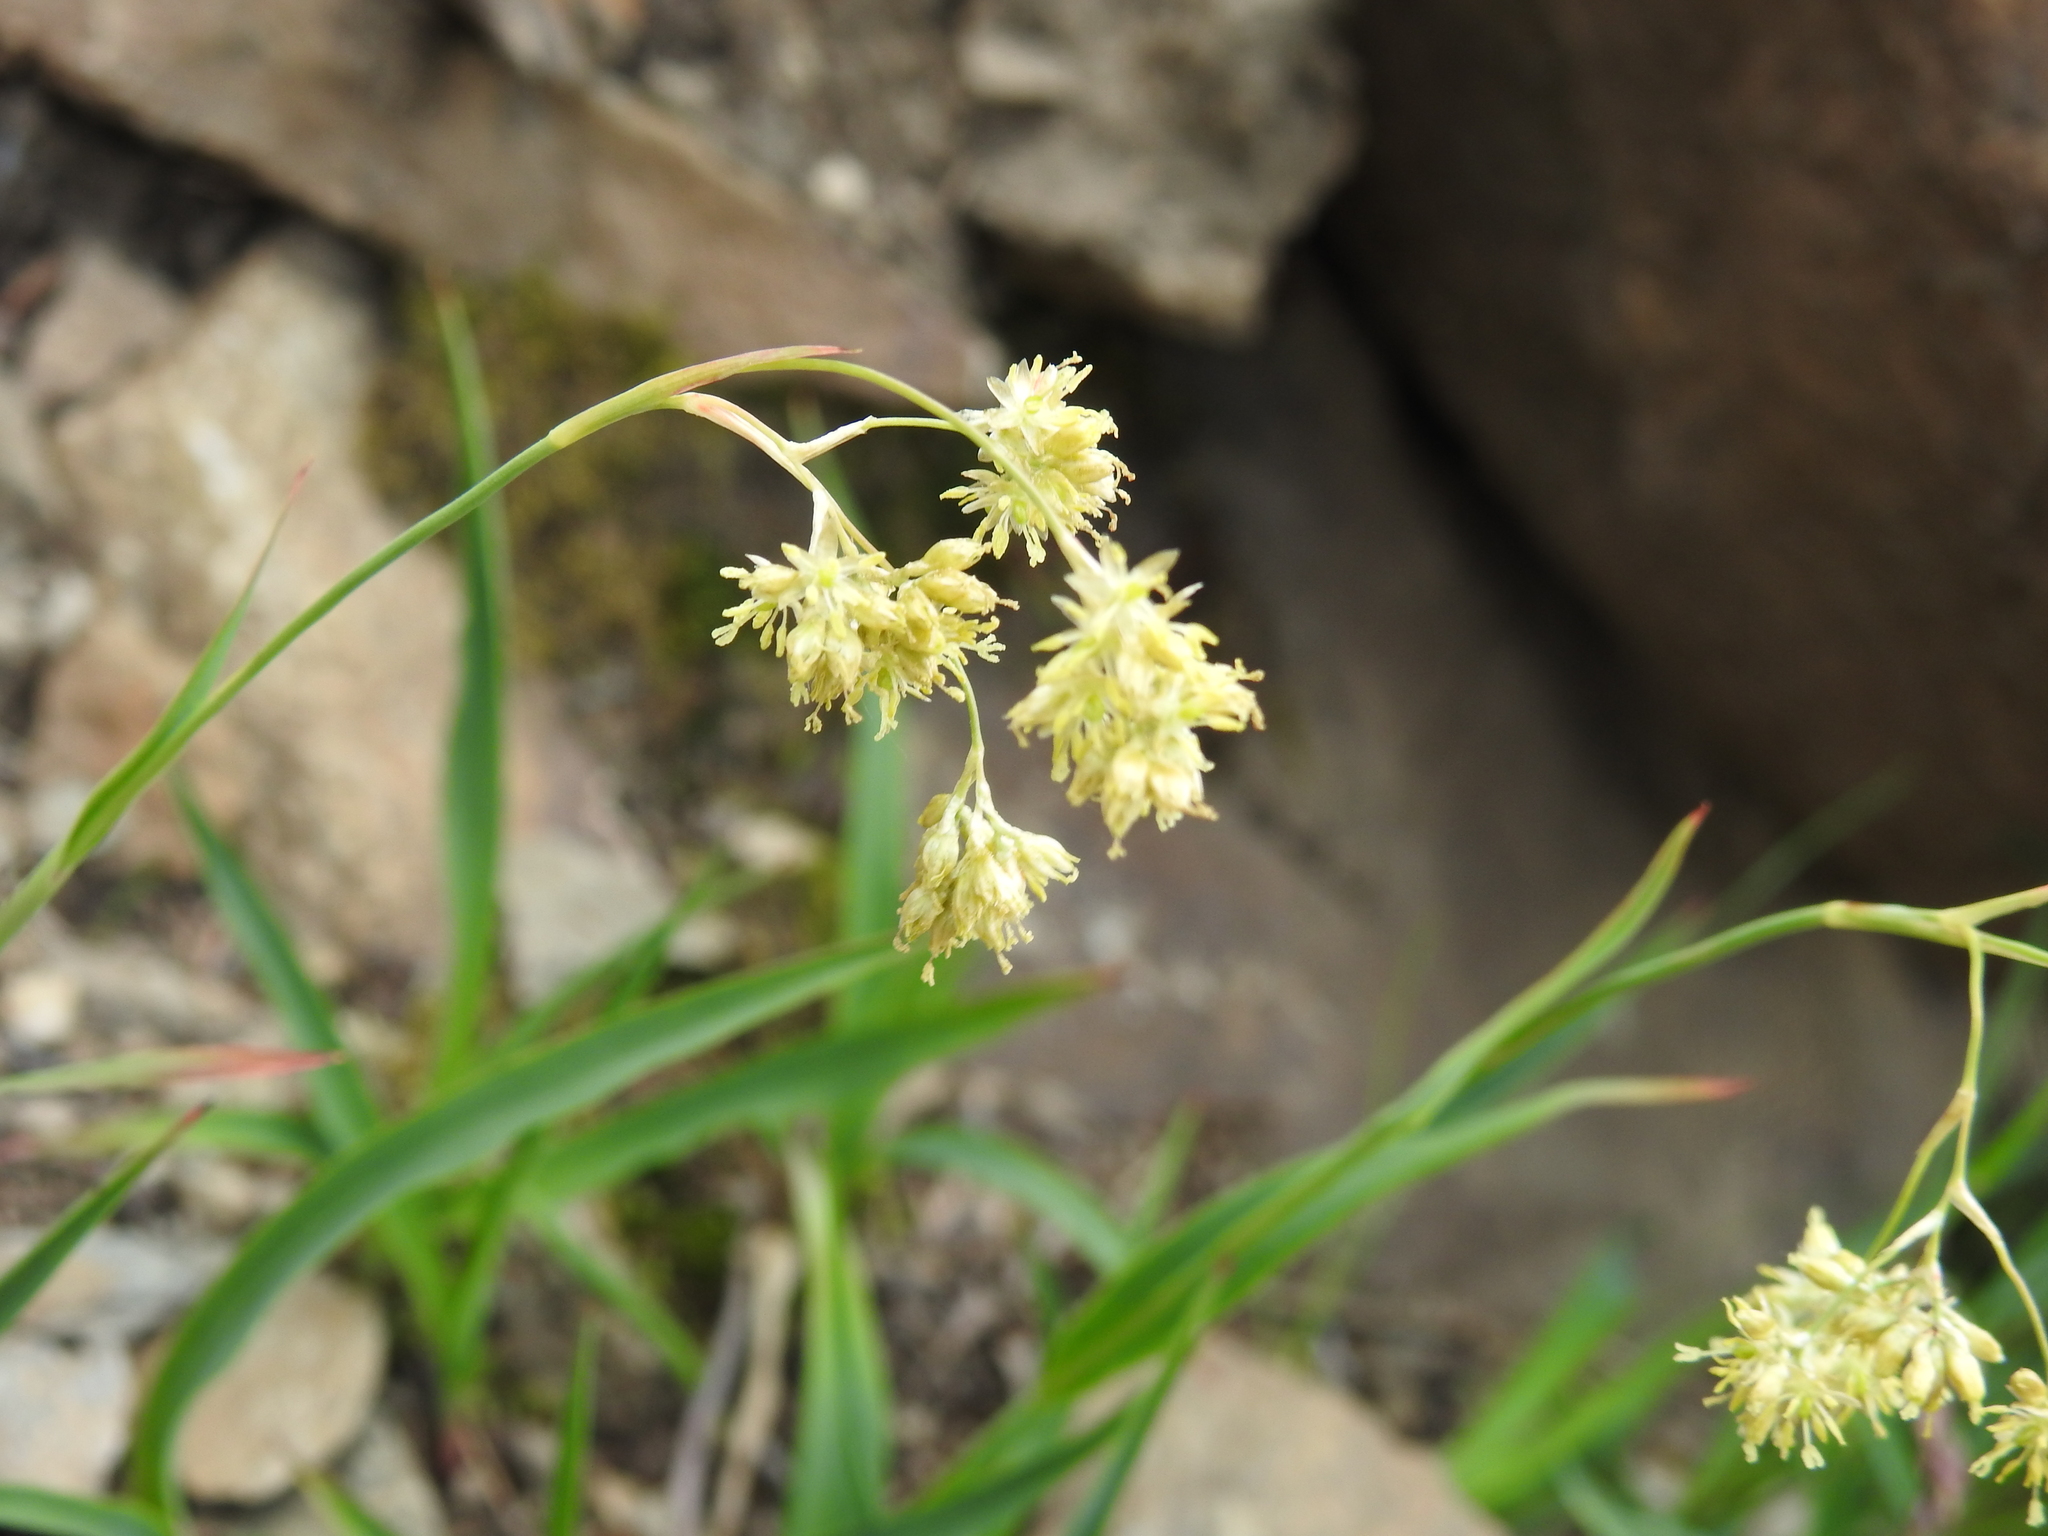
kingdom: Plantae
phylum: Tracheophyta
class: Liliopsida
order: Poales
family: Juncaceae
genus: Luzula
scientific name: Luzula lutea
